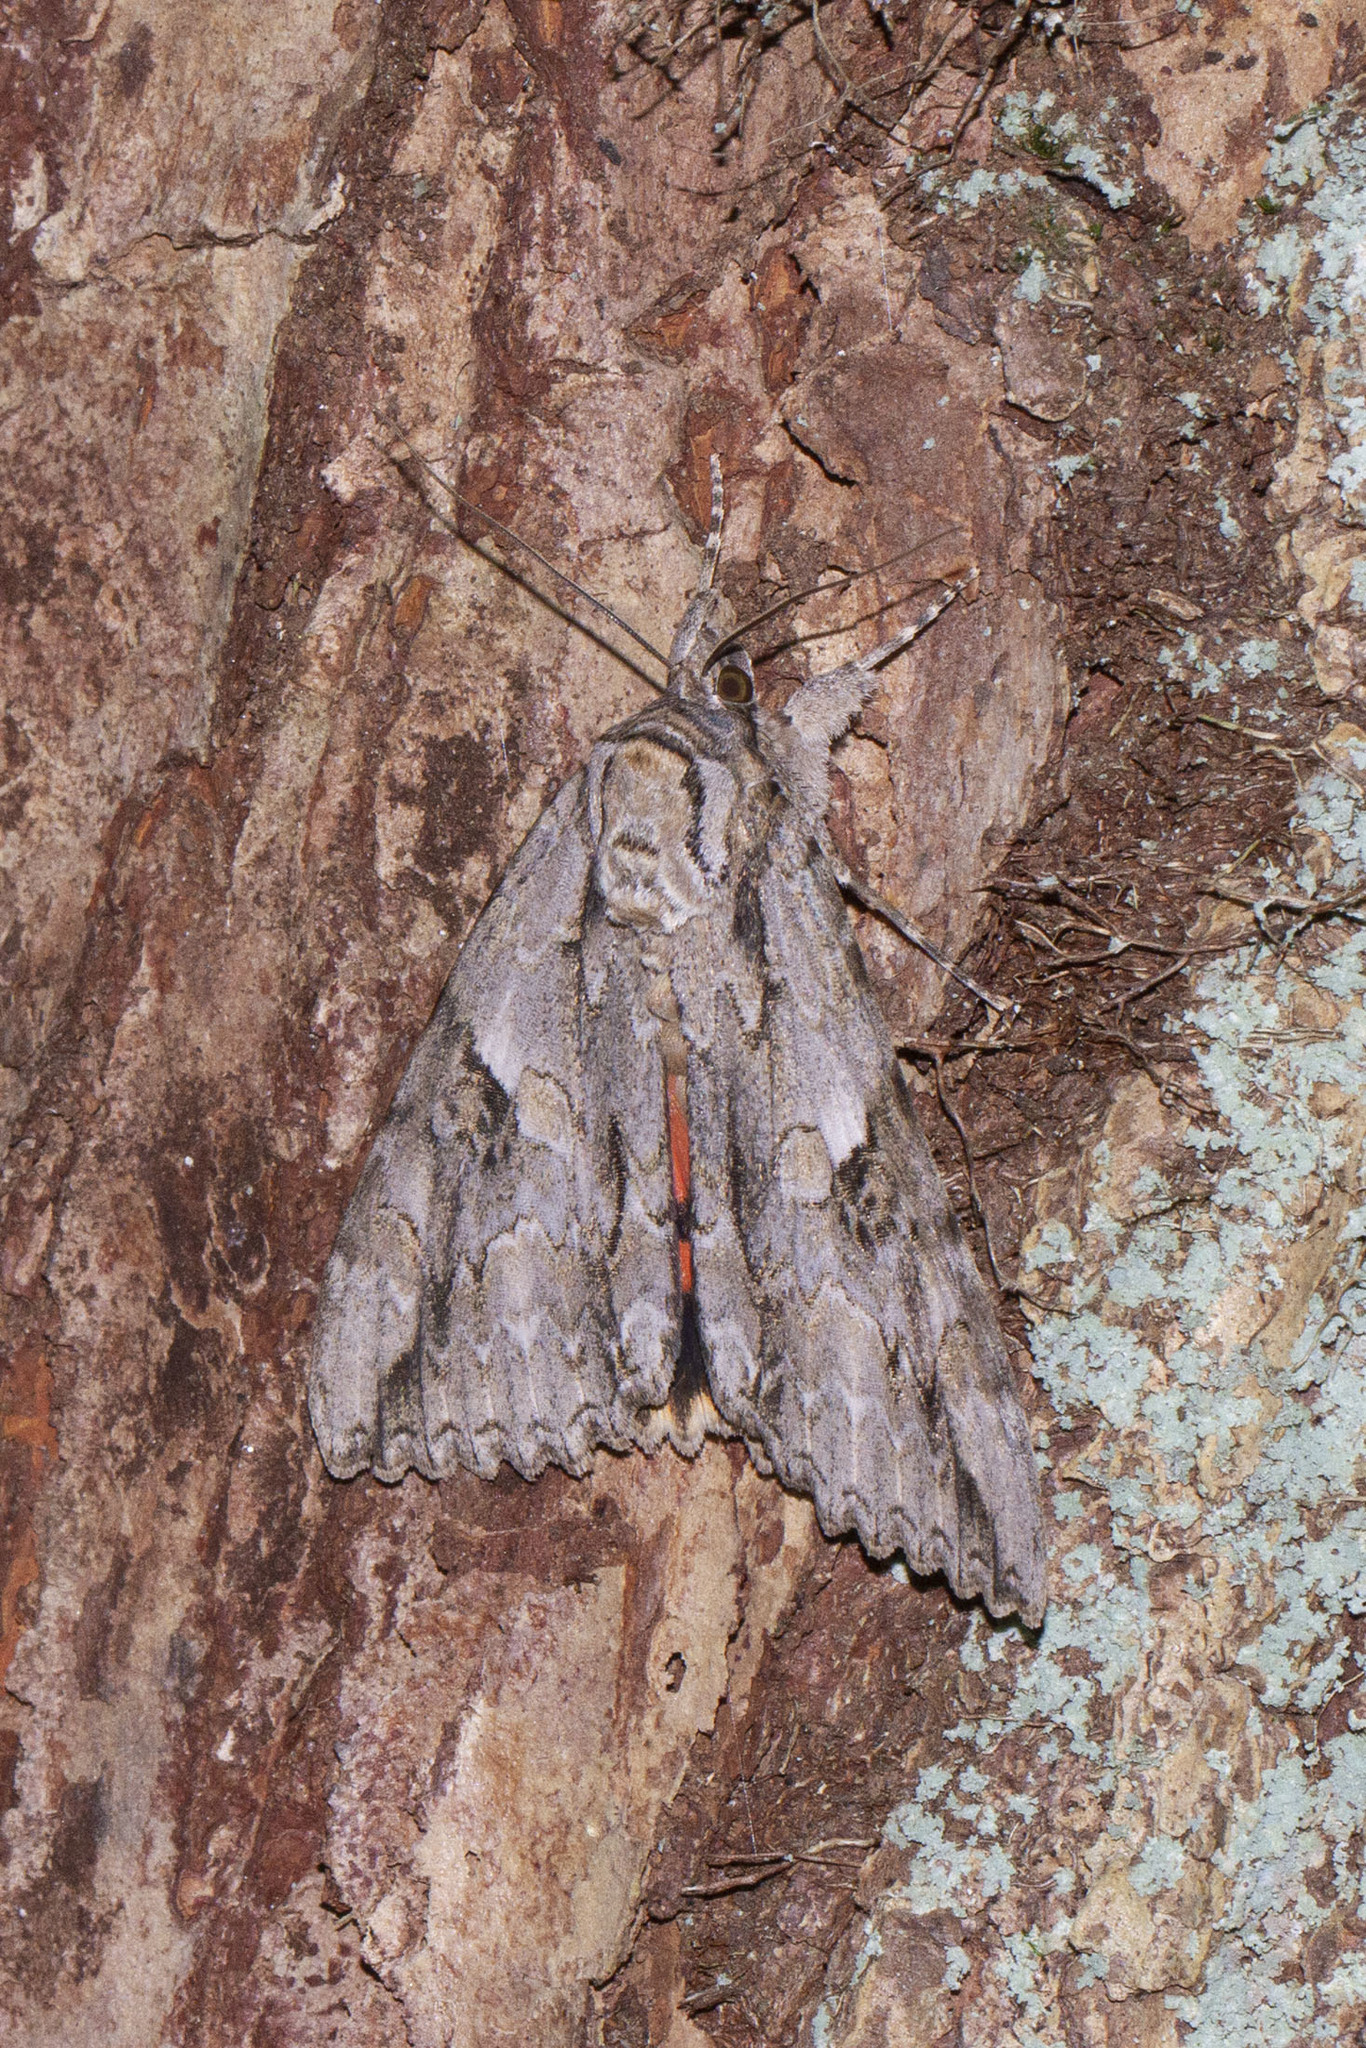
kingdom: Animalia
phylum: Arthropoda
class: Insecta
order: Lepidoptera
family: Erebidae
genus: Catocala
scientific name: Catocala parta
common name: Mother underwing
